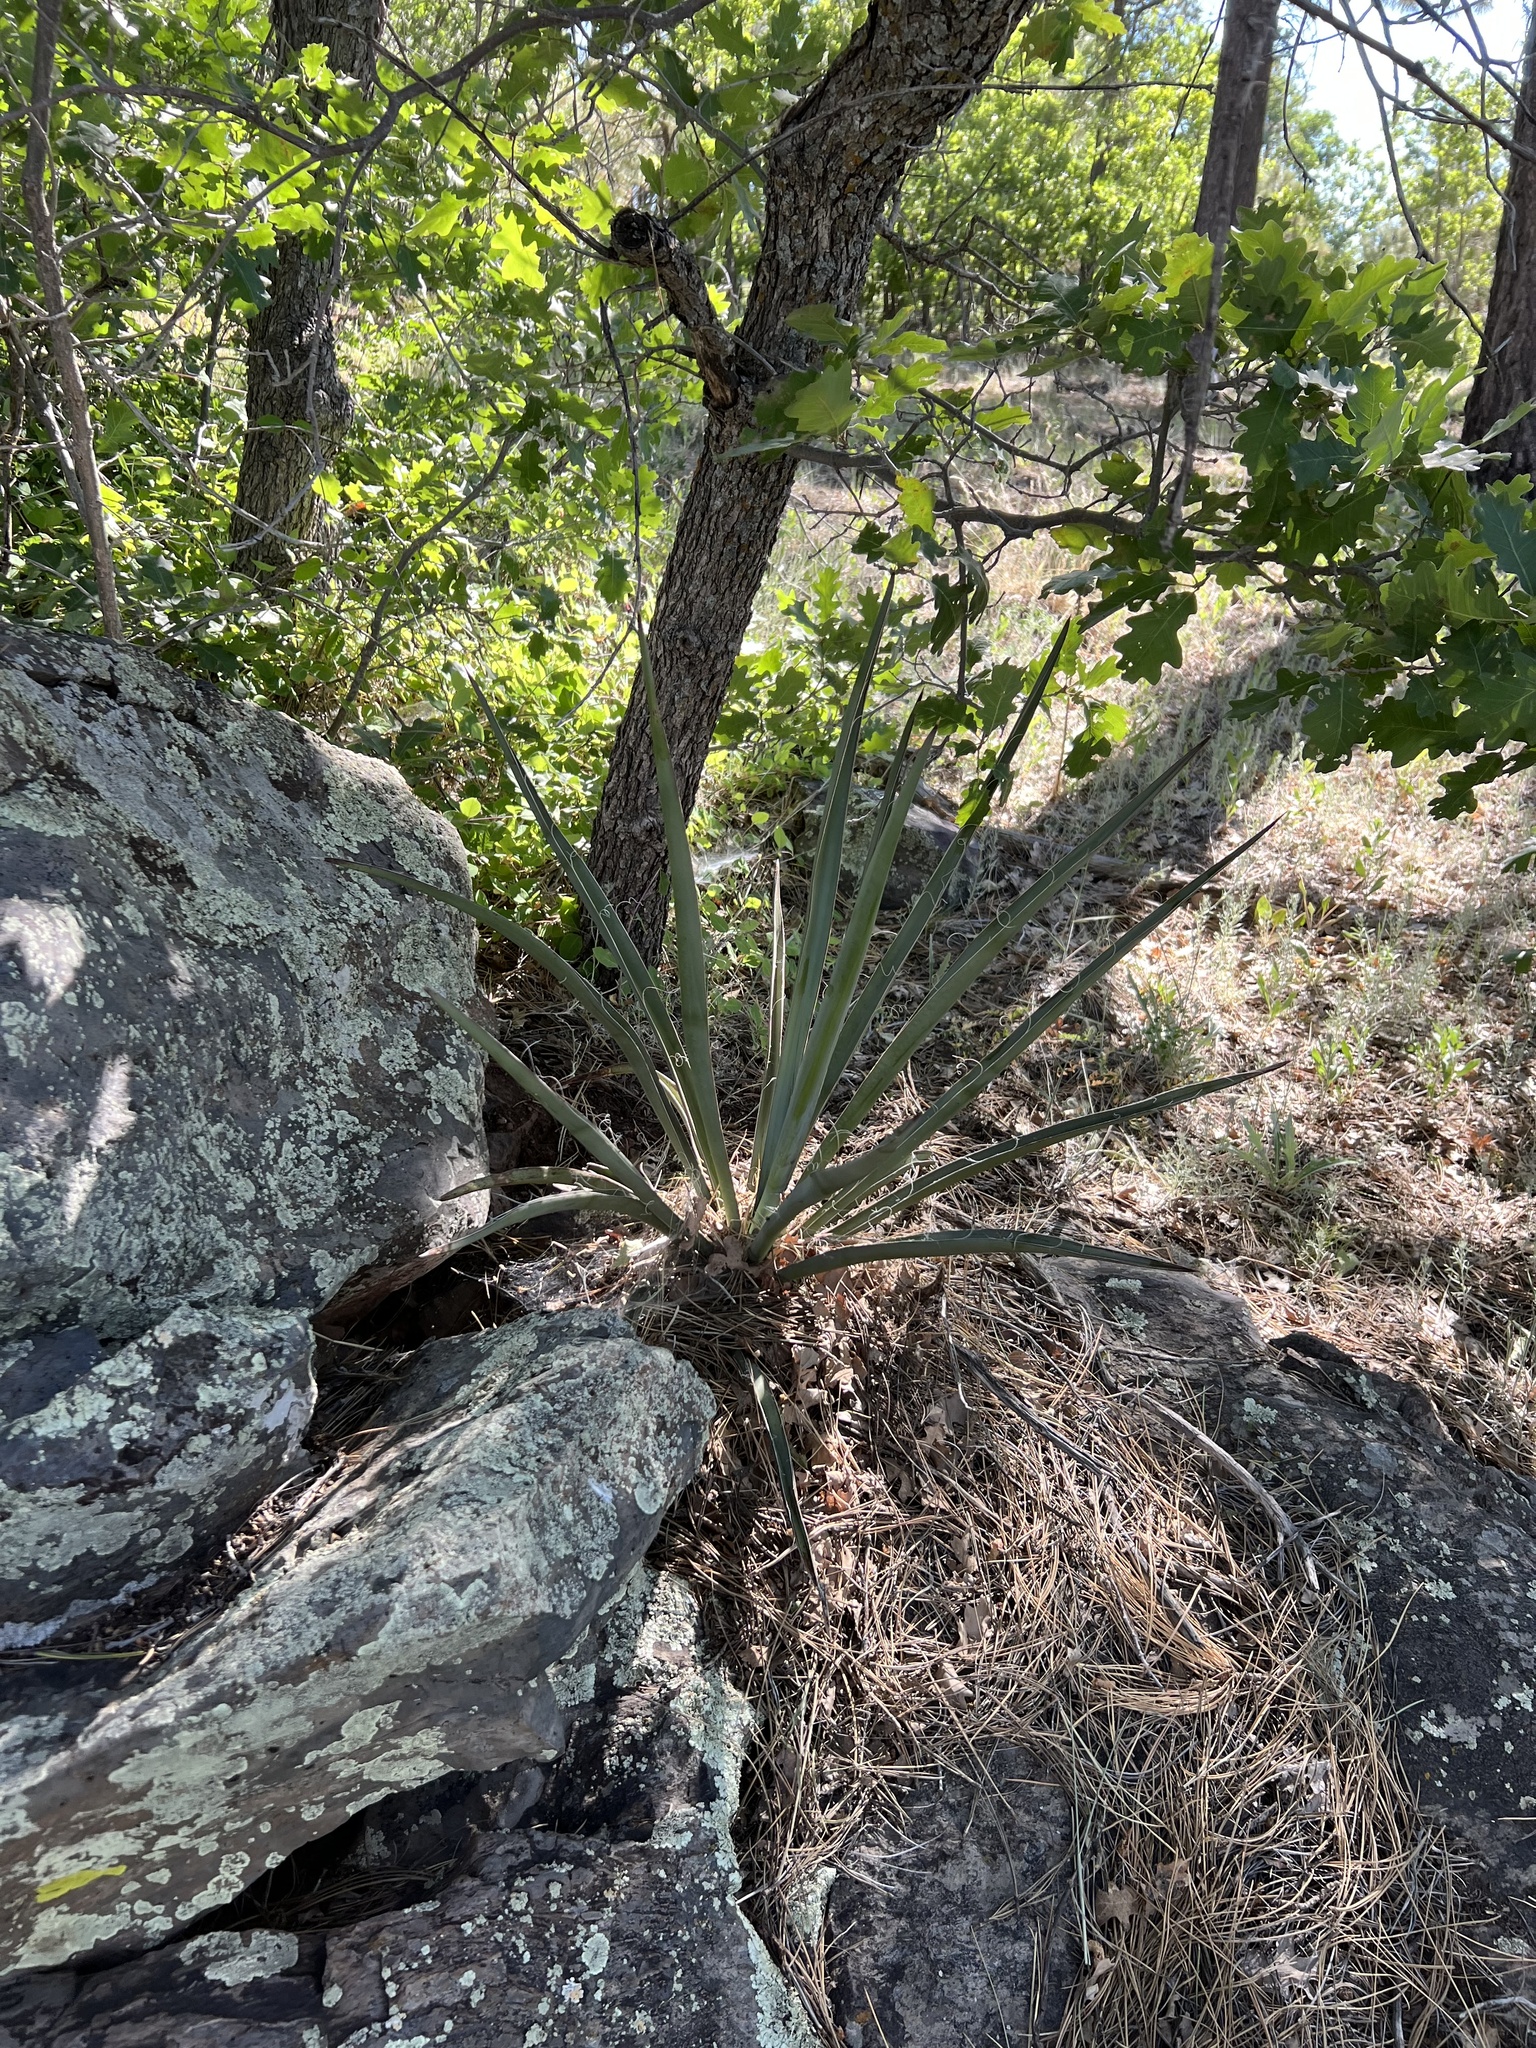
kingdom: Plantae
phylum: Tracheophyta
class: Liliopsida
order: Asparagales
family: Asparagaceae
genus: Yucca
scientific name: Yucca baccata
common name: Banana yucca
